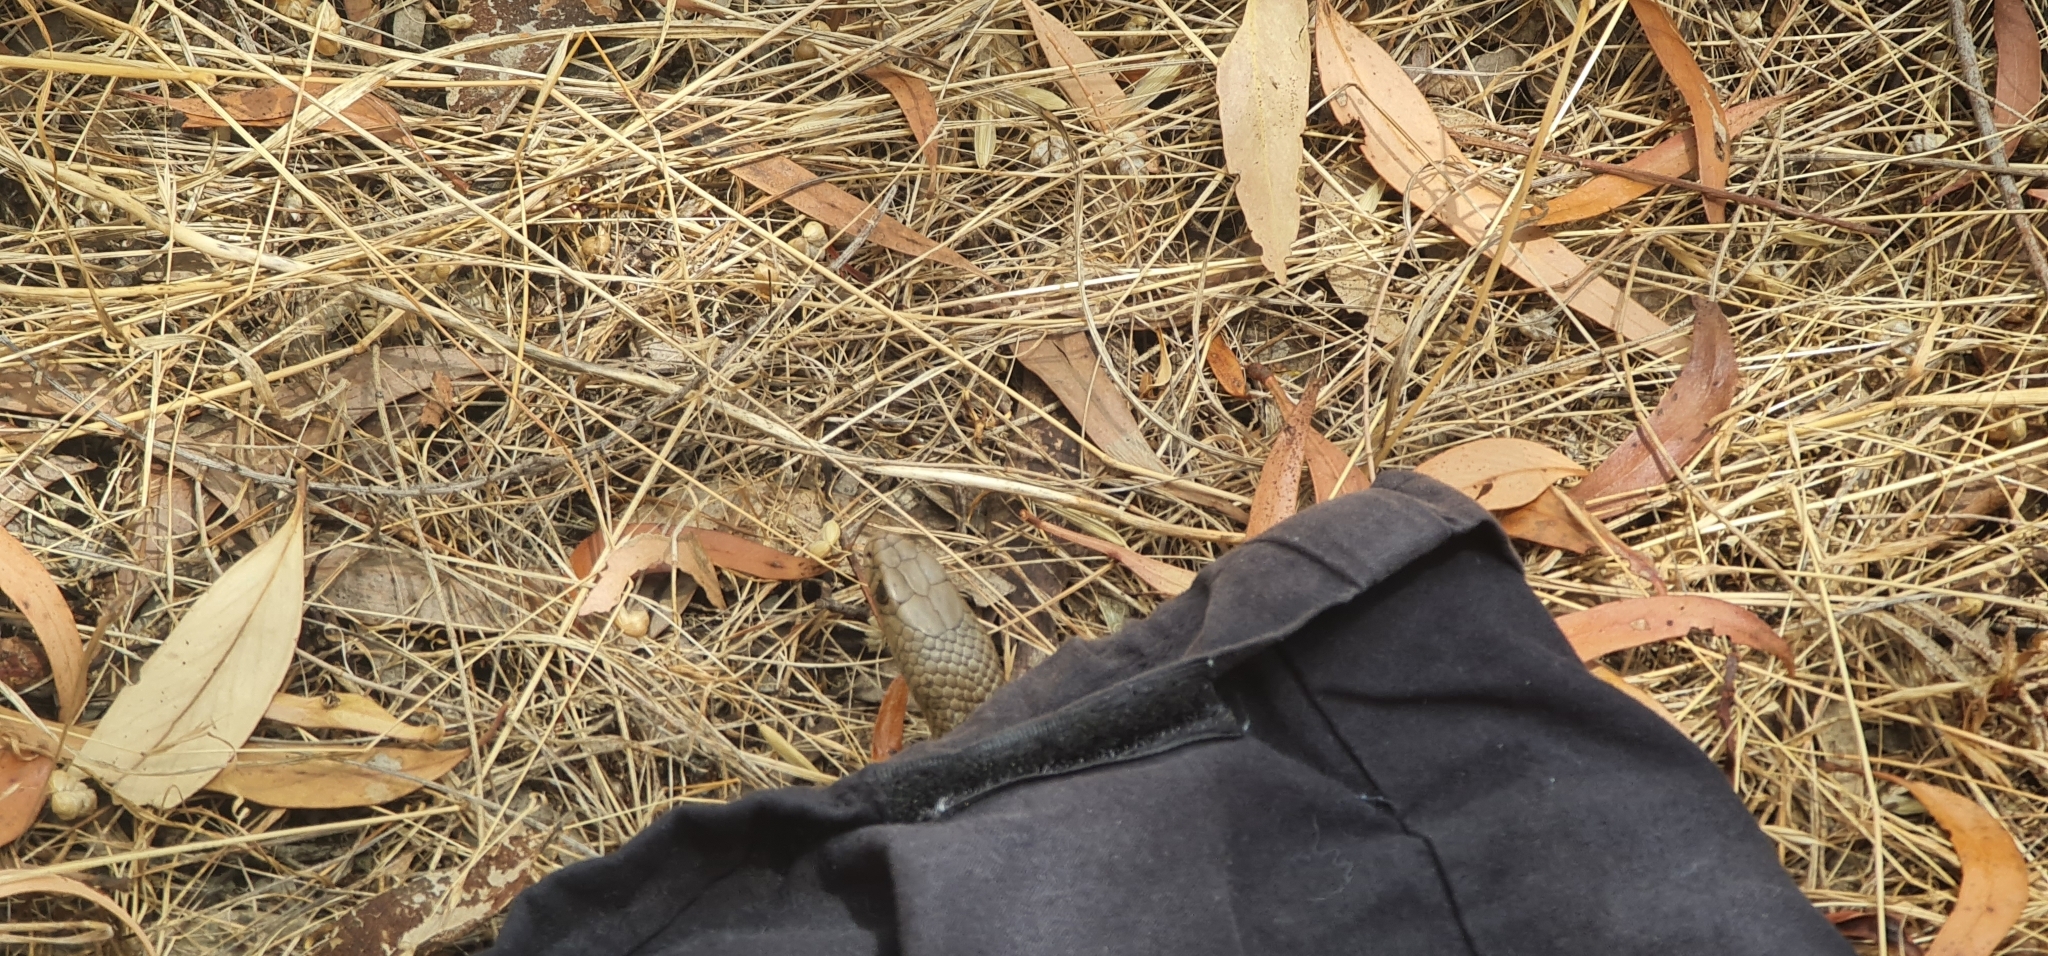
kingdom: Animalia
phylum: Chordata
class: Squamata
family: Elapidae
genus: Pseudonaja
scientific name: Pseudonaja textilis
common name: Eastern brown snake
